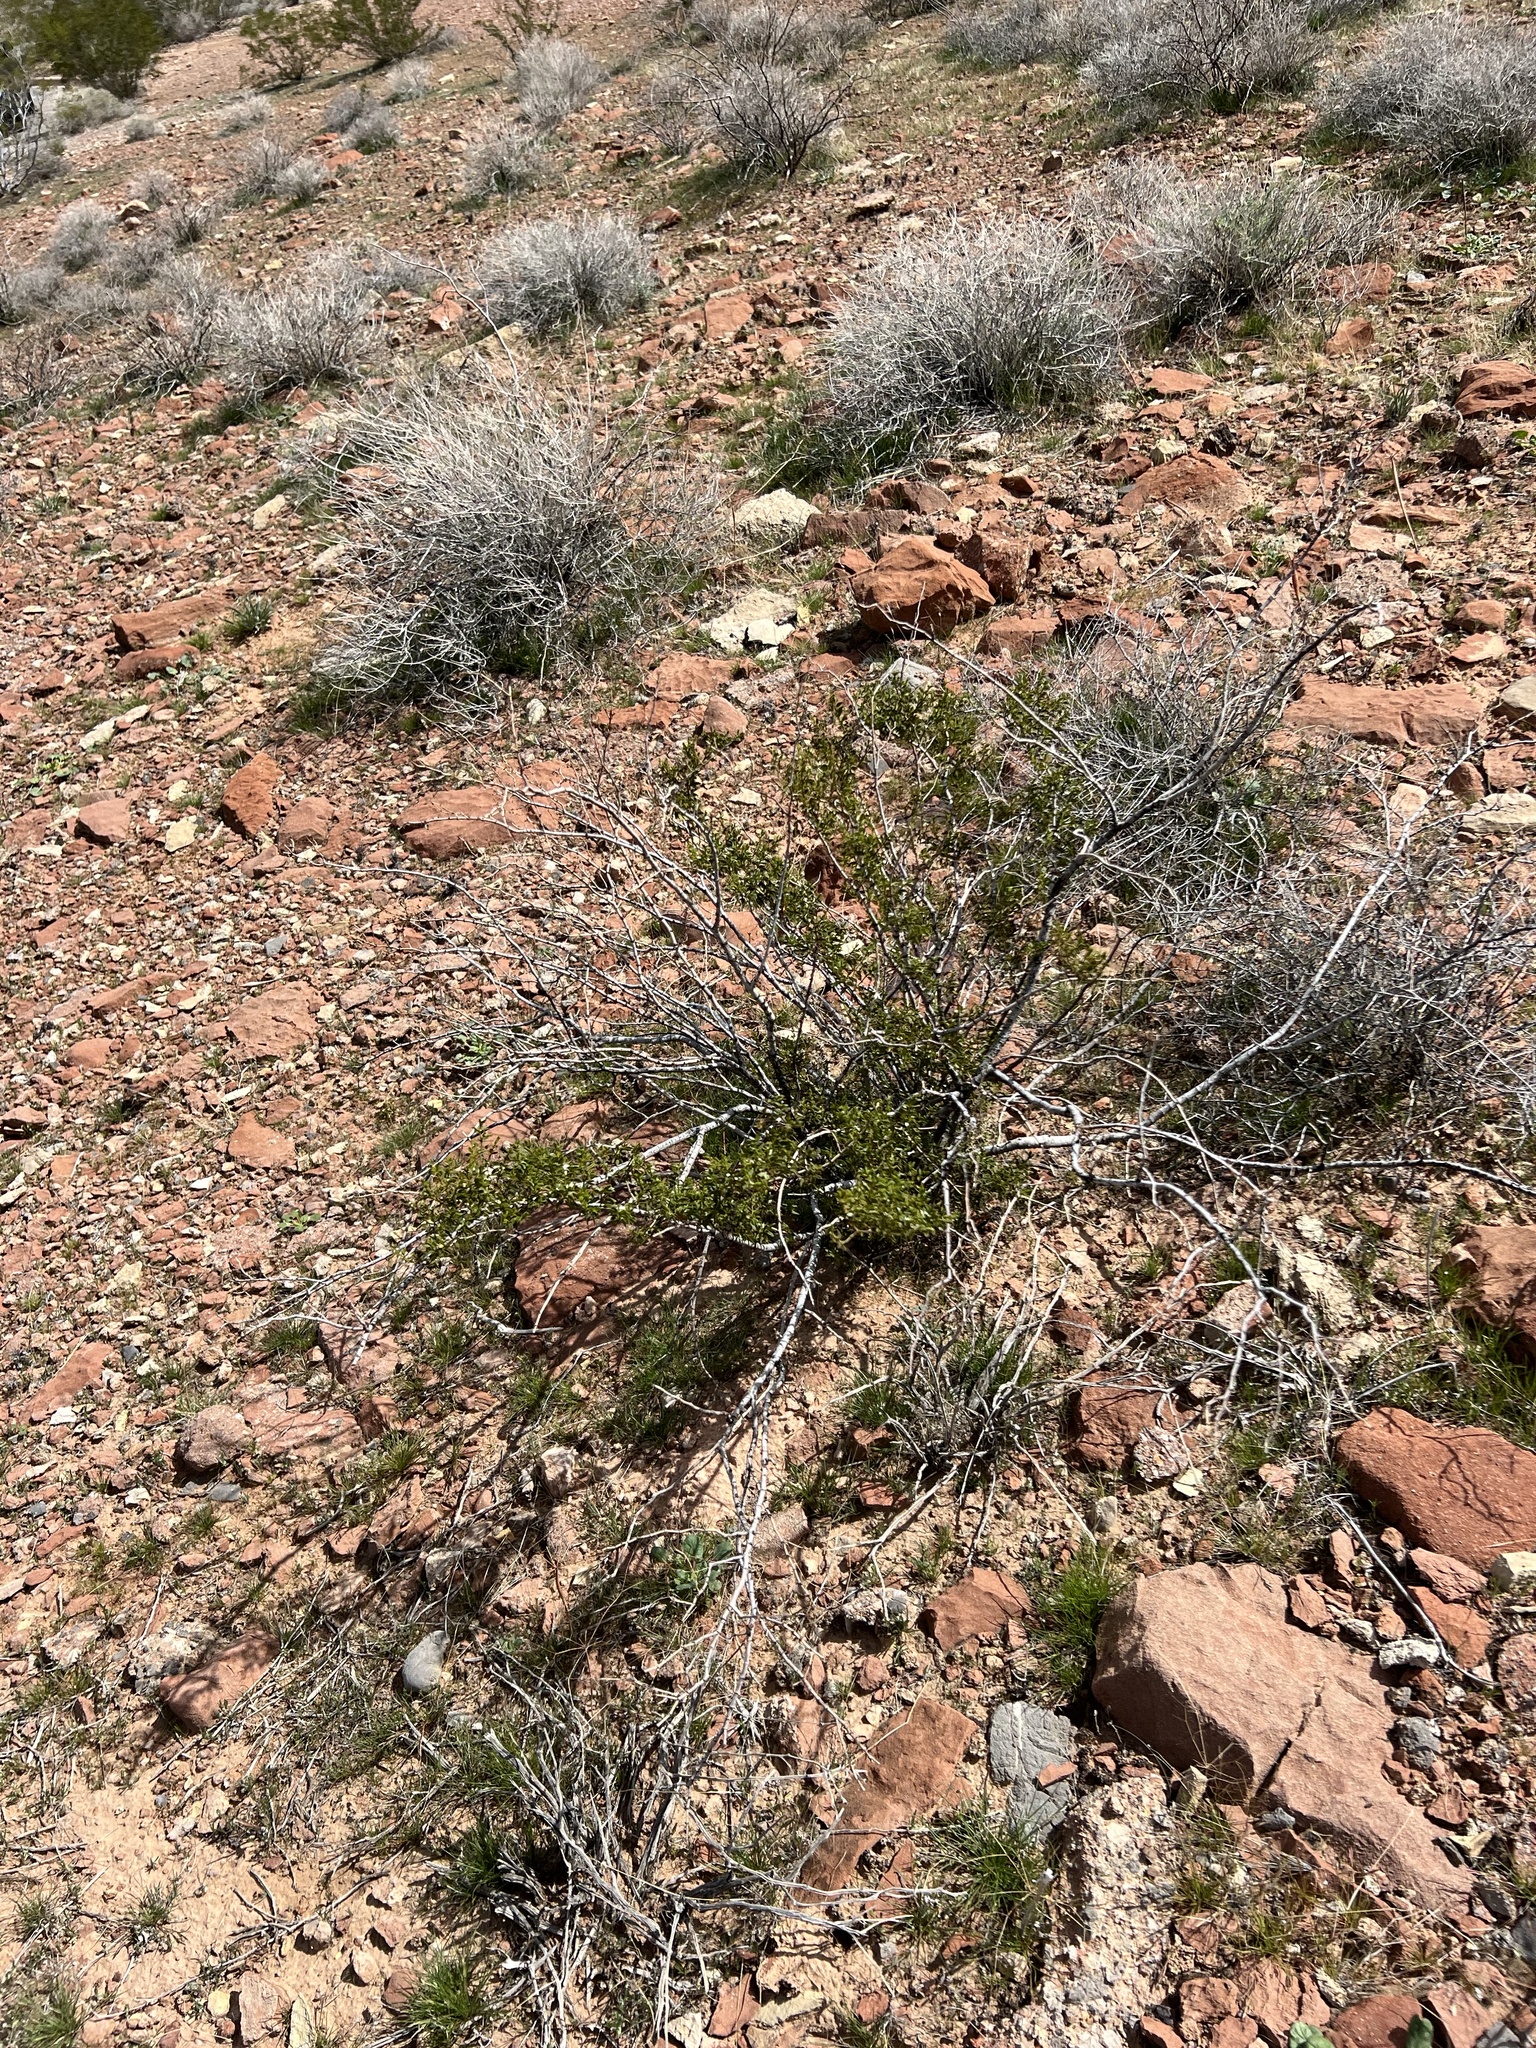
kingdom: Plantae
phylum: Tracheophyta
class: Magnoliopsida
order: Zygophyllales
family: Zygophyllaceae
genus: Larrea
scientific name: Larrea tridentata
